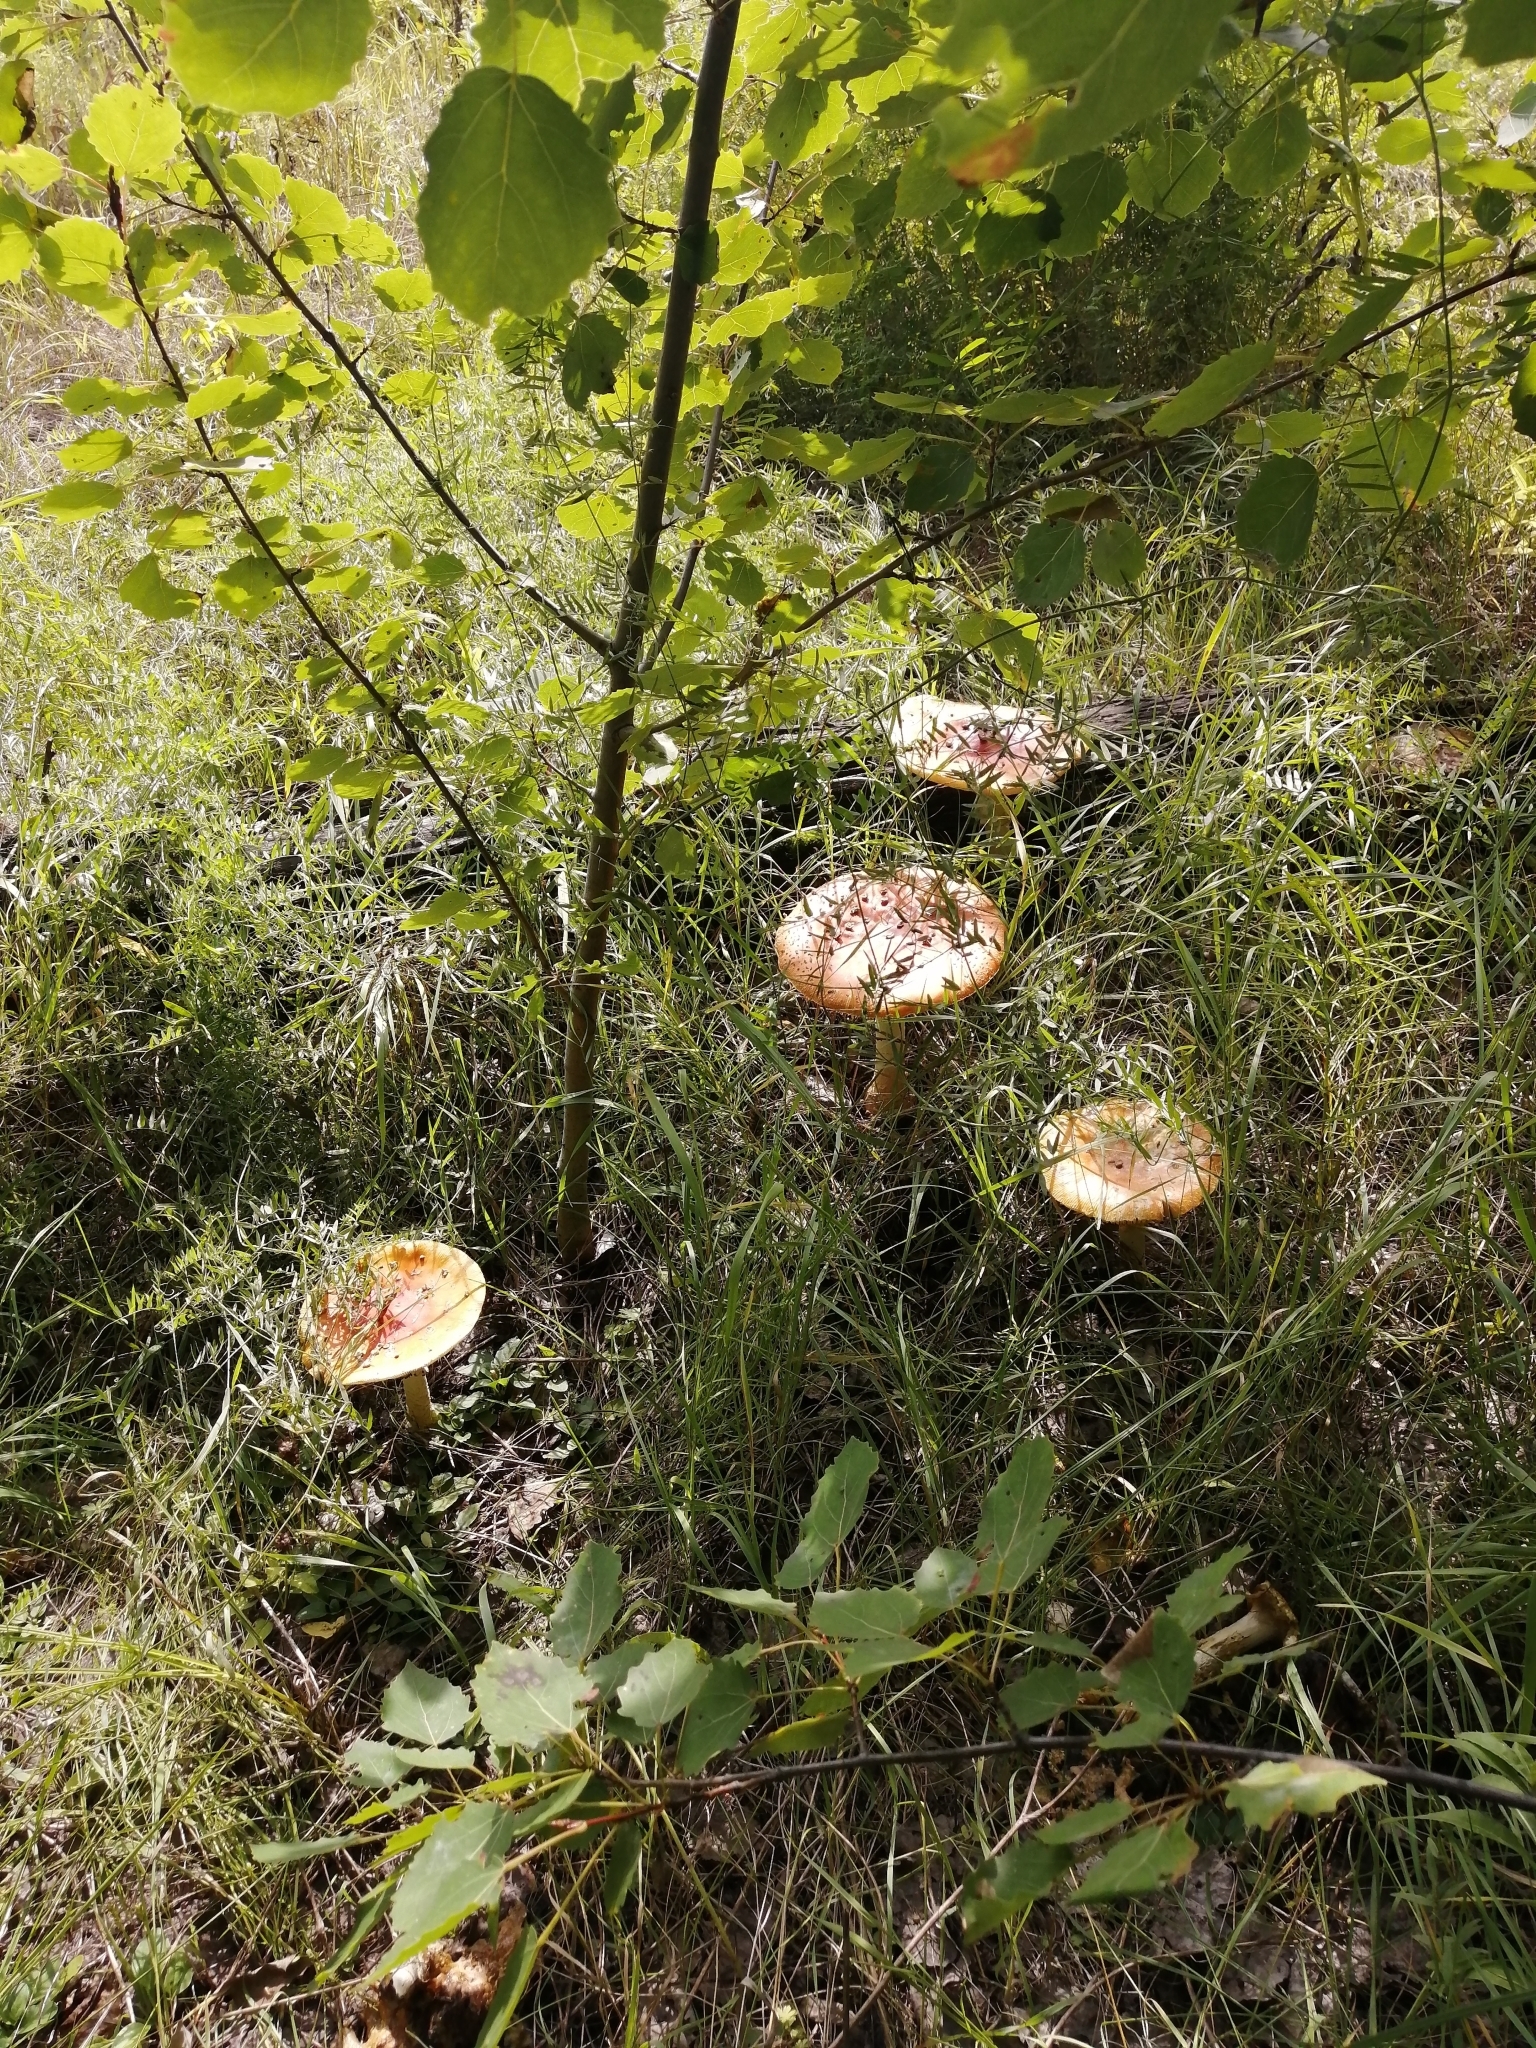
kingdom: Fungi
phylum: Basidiomycota
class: Agaricomycetes
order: Agaricales
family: Amanitaceae
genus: Amanita
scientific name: Amanita muscaria
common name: Fly agaric
